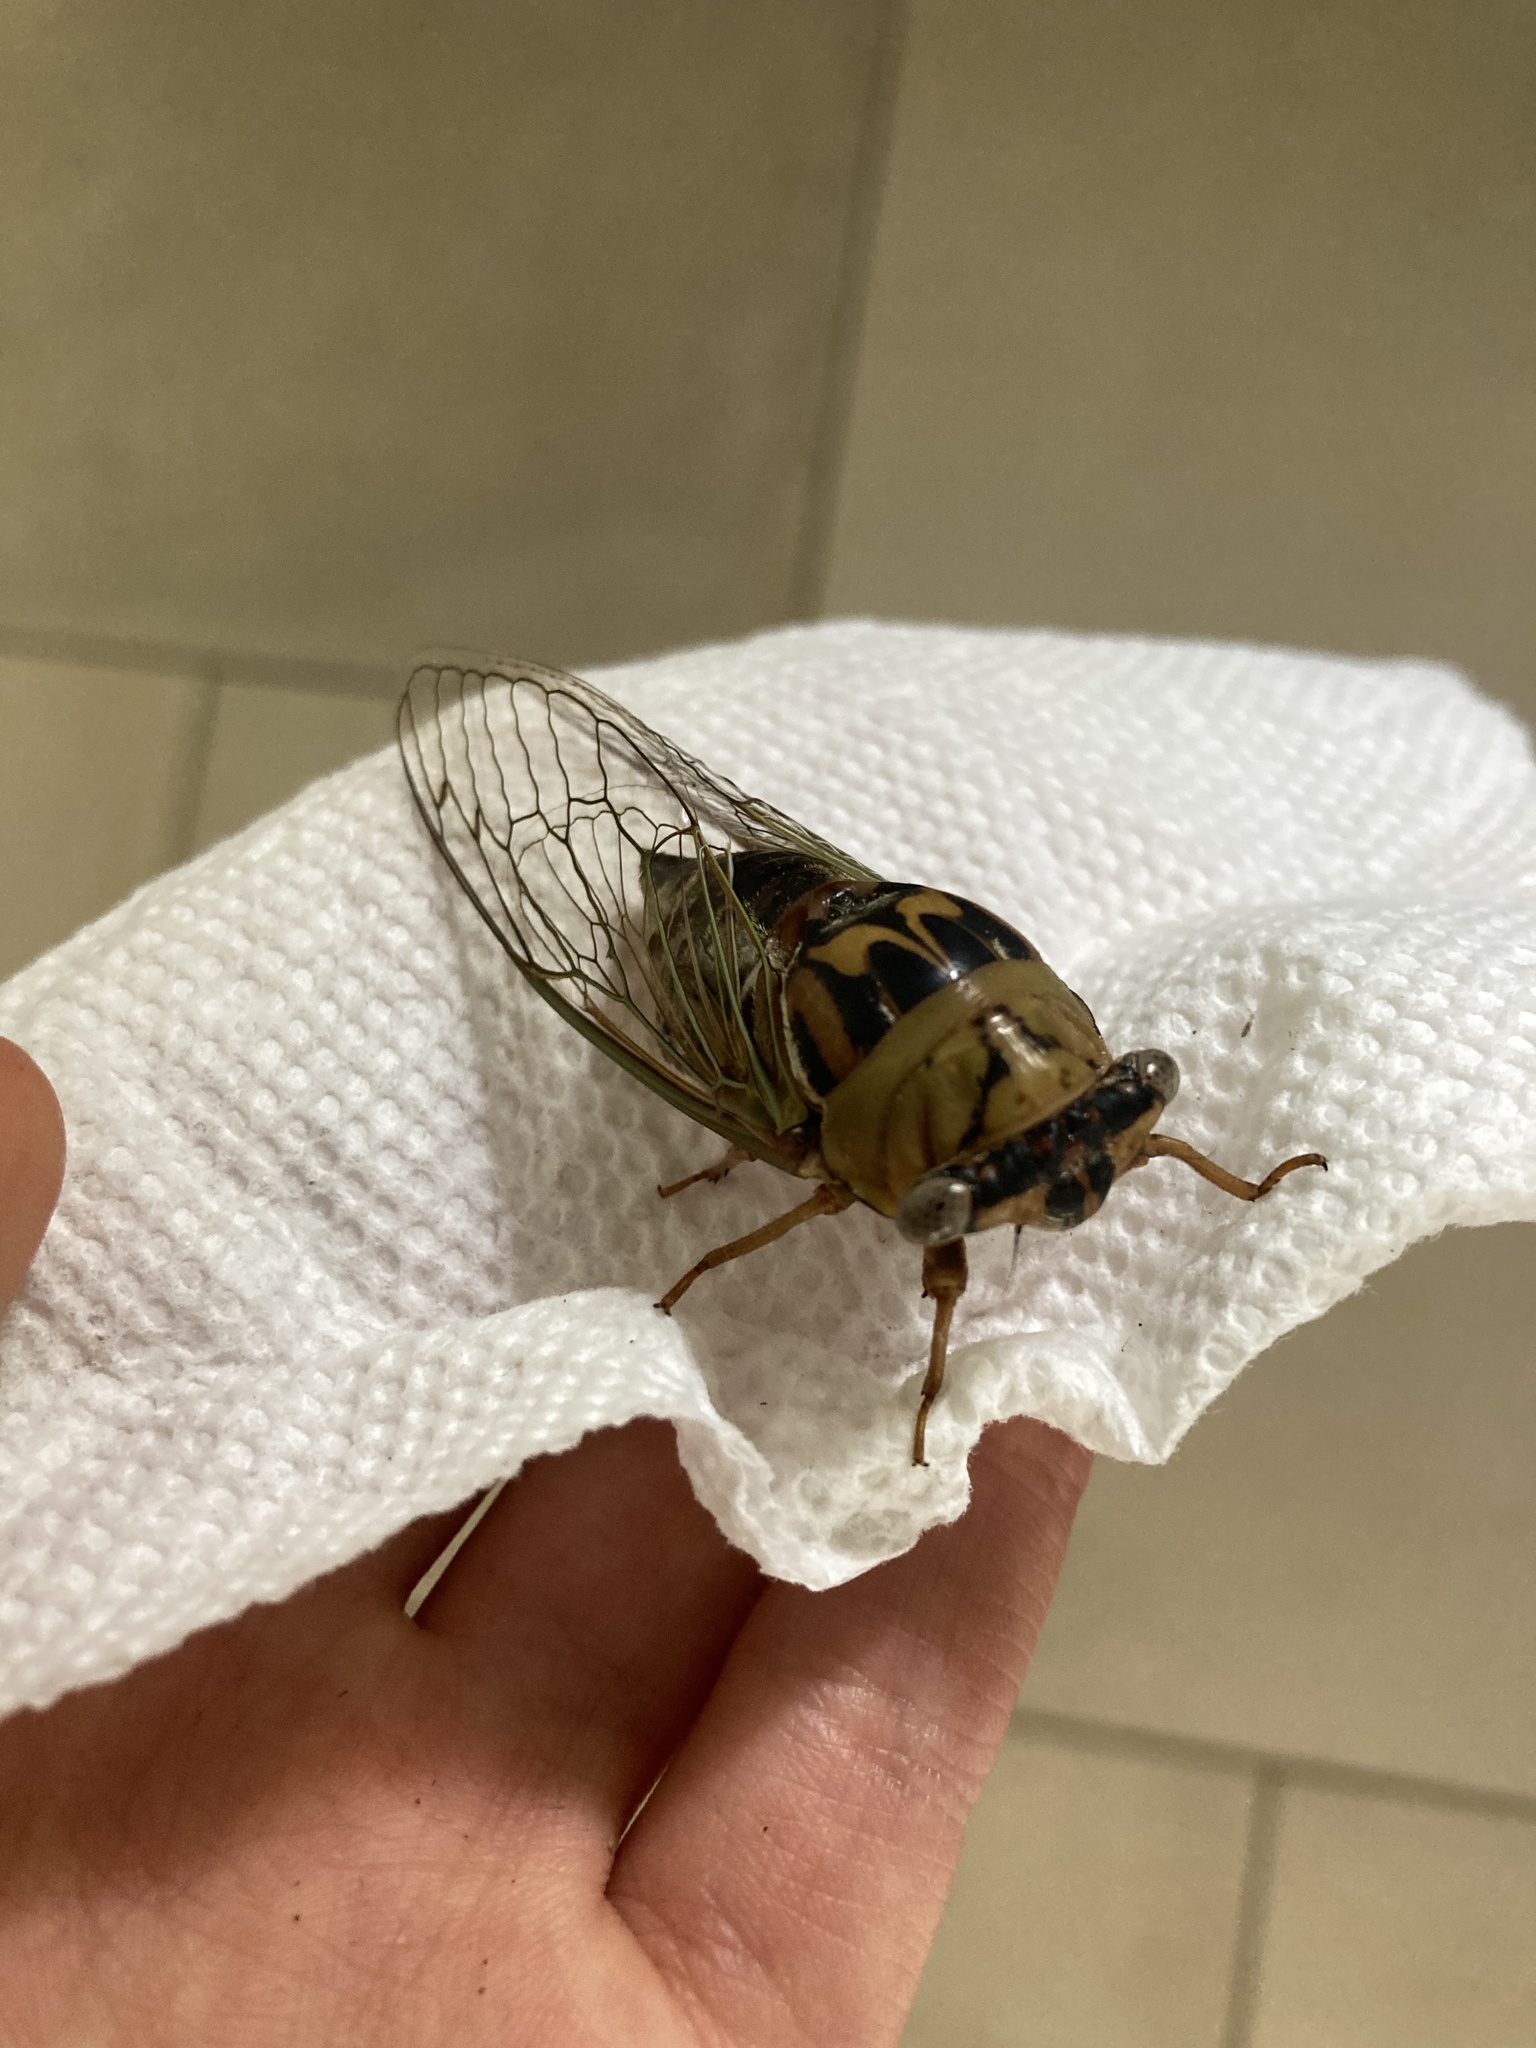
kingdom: Animalia
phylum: Arthropoda
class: Insecta
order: Hemiptera
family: Cicadidae
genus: Megatibicen
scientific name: Megatibicen resh
